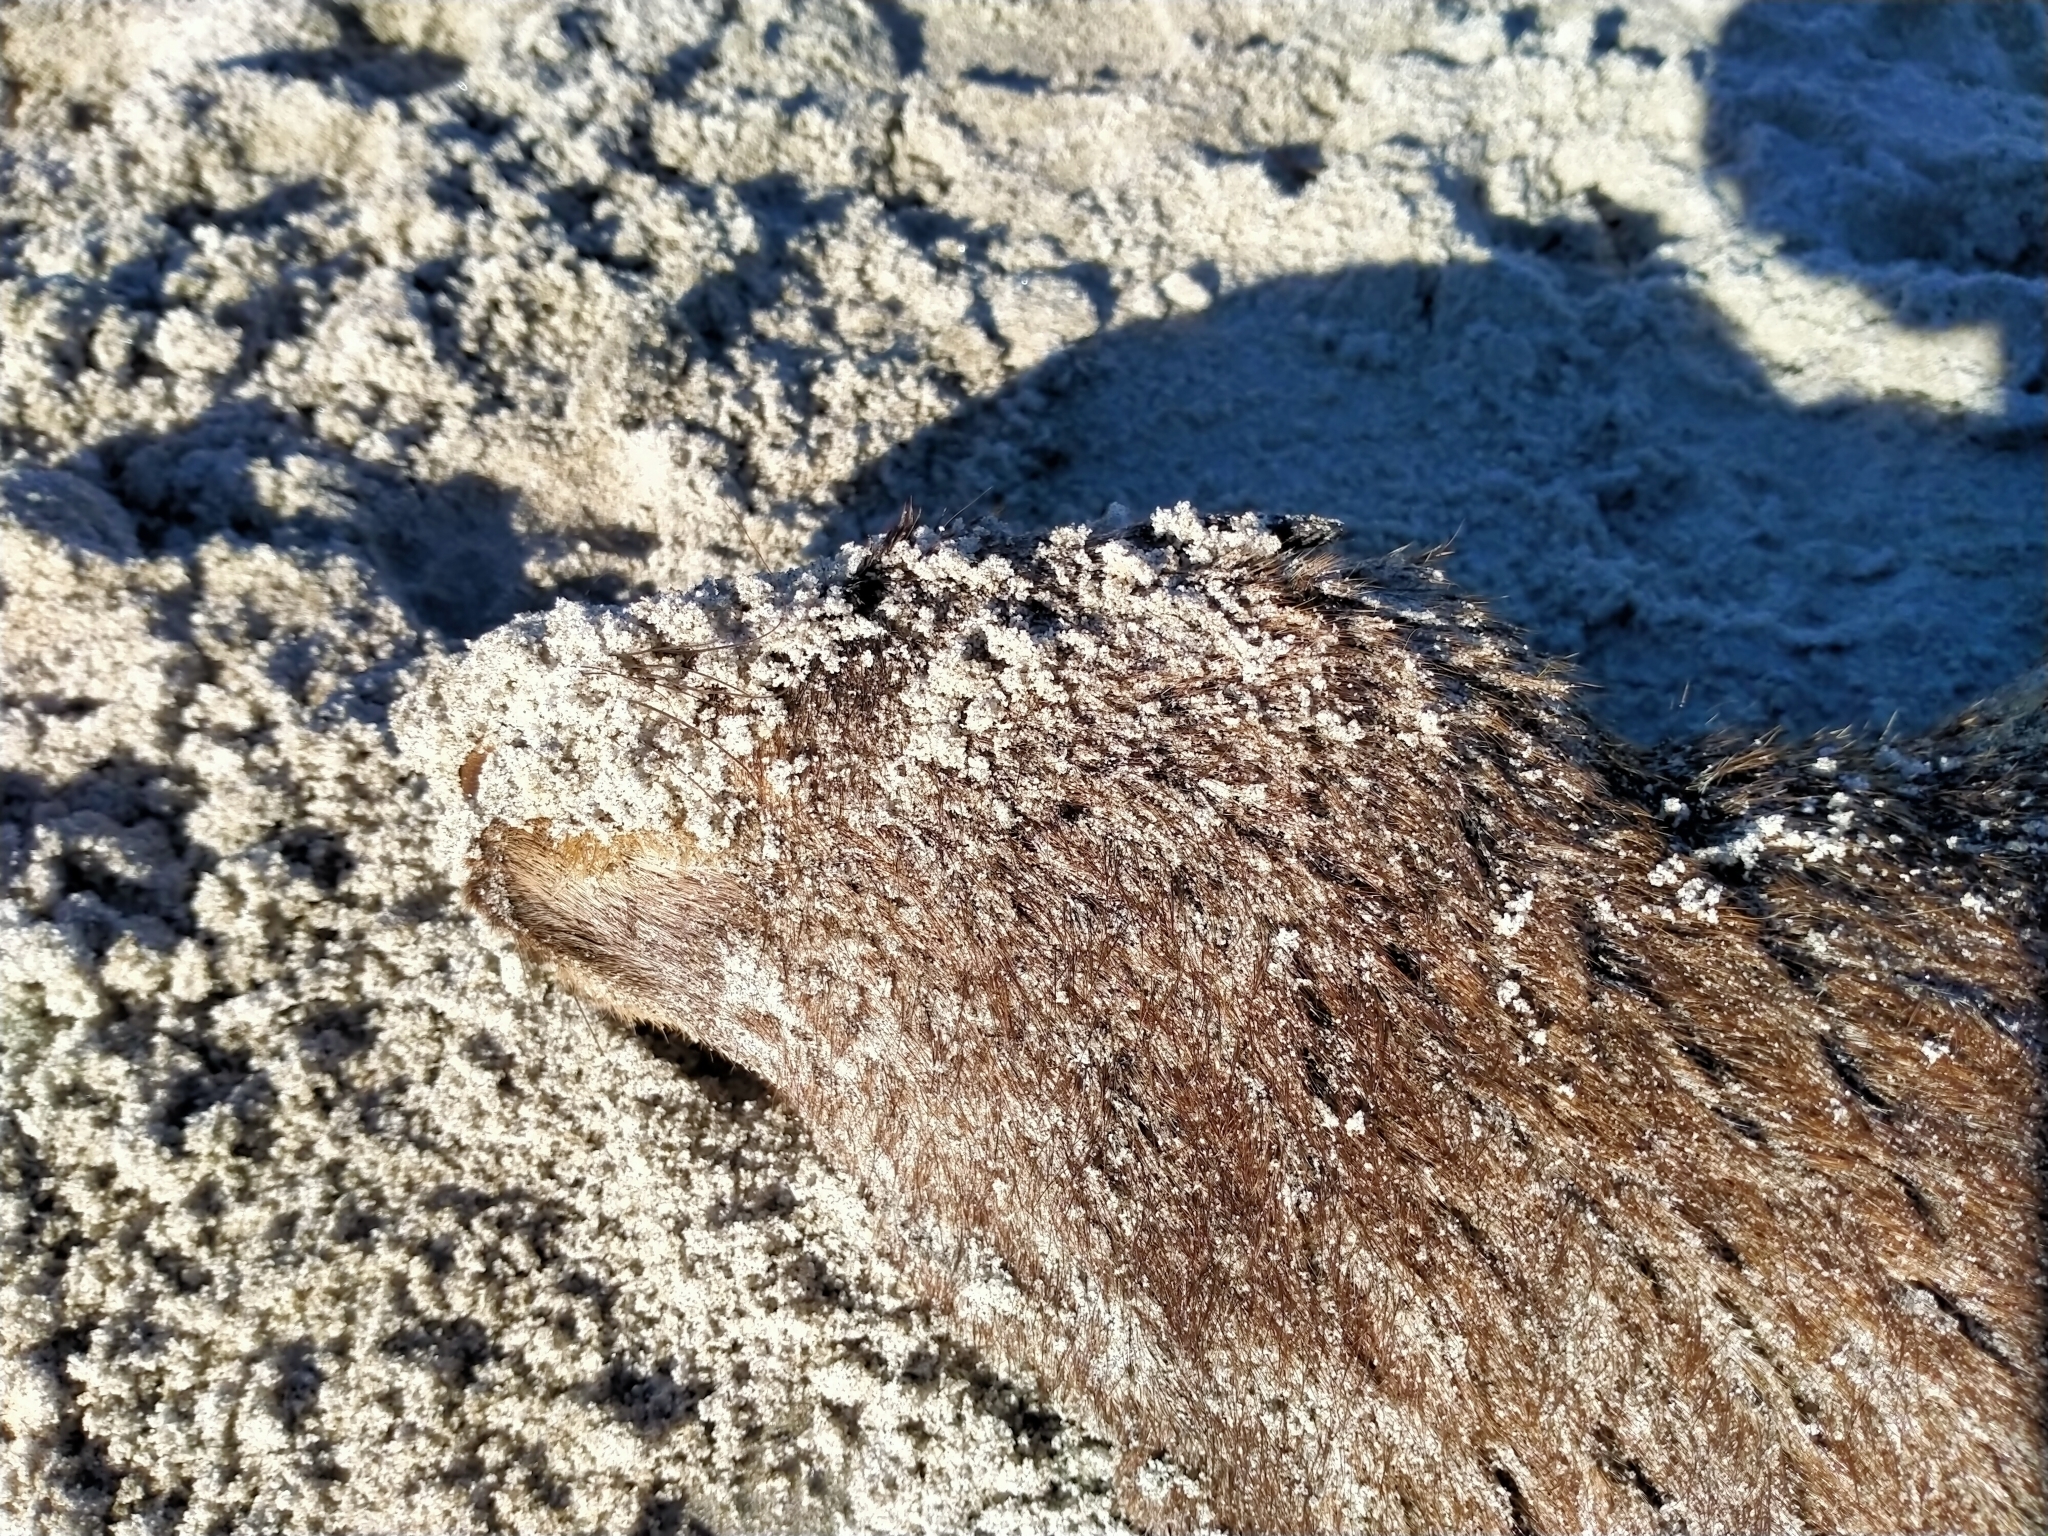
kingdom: Animalia
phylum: Chordata
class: Mammalia
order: Carnivora
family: Otariidae
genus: Arctocephalus
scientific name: Arctocephalus forsteri
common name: New zealand fur seal
